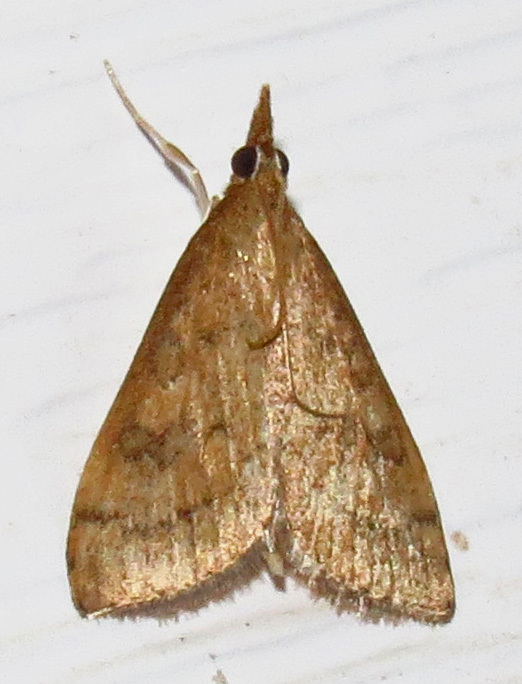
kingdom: Animalia
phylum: Arthropoda
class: Insecta
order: Lepidoptera
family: Crambidae
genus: Udea
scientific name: Udea rubigalis
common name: Celery leaftier moth
